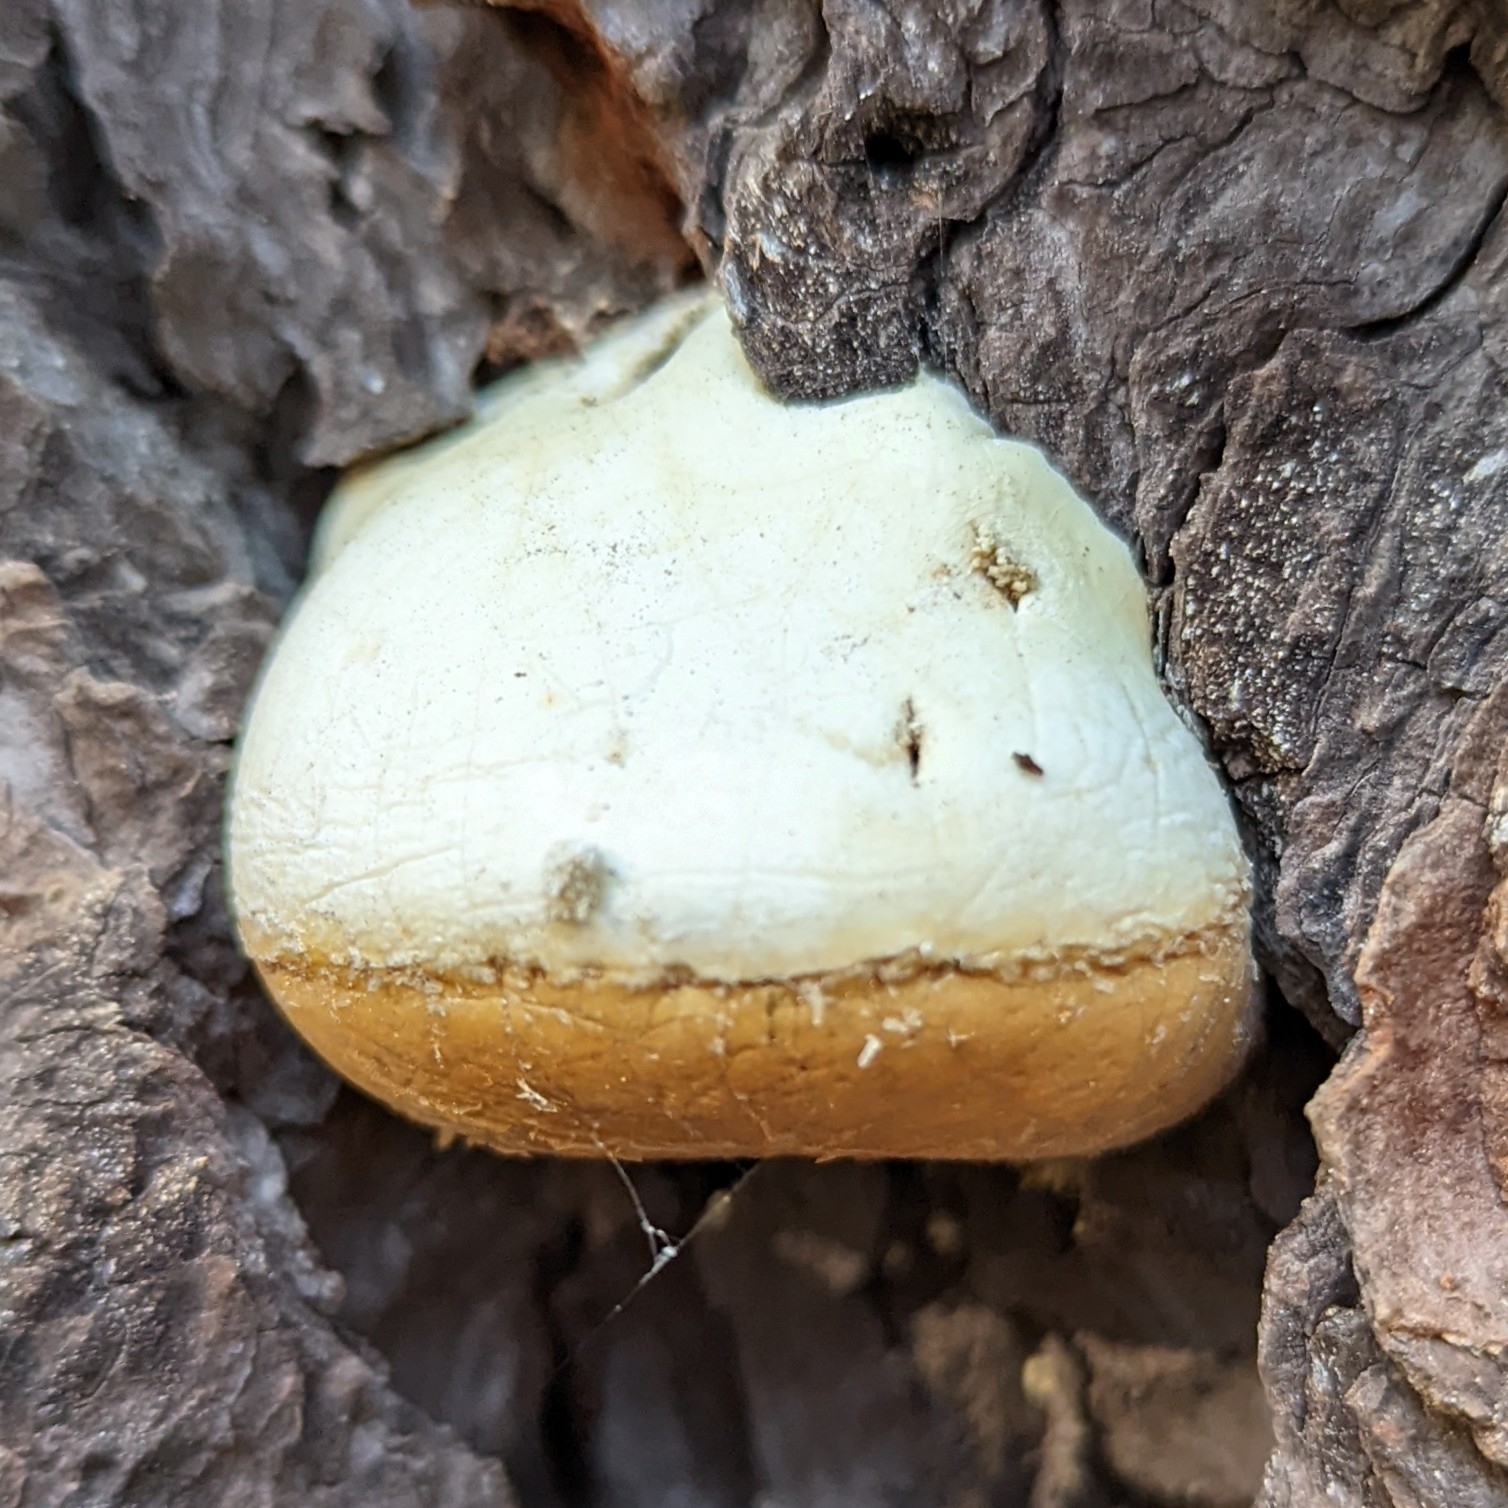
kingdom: Fungi
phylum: Basidiomycota
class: Agaricomycetes
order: Polyporales
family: Polyporaceae
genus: Cryptoporus
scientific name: Cryptoporus volvatus
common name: Veiled polypore
